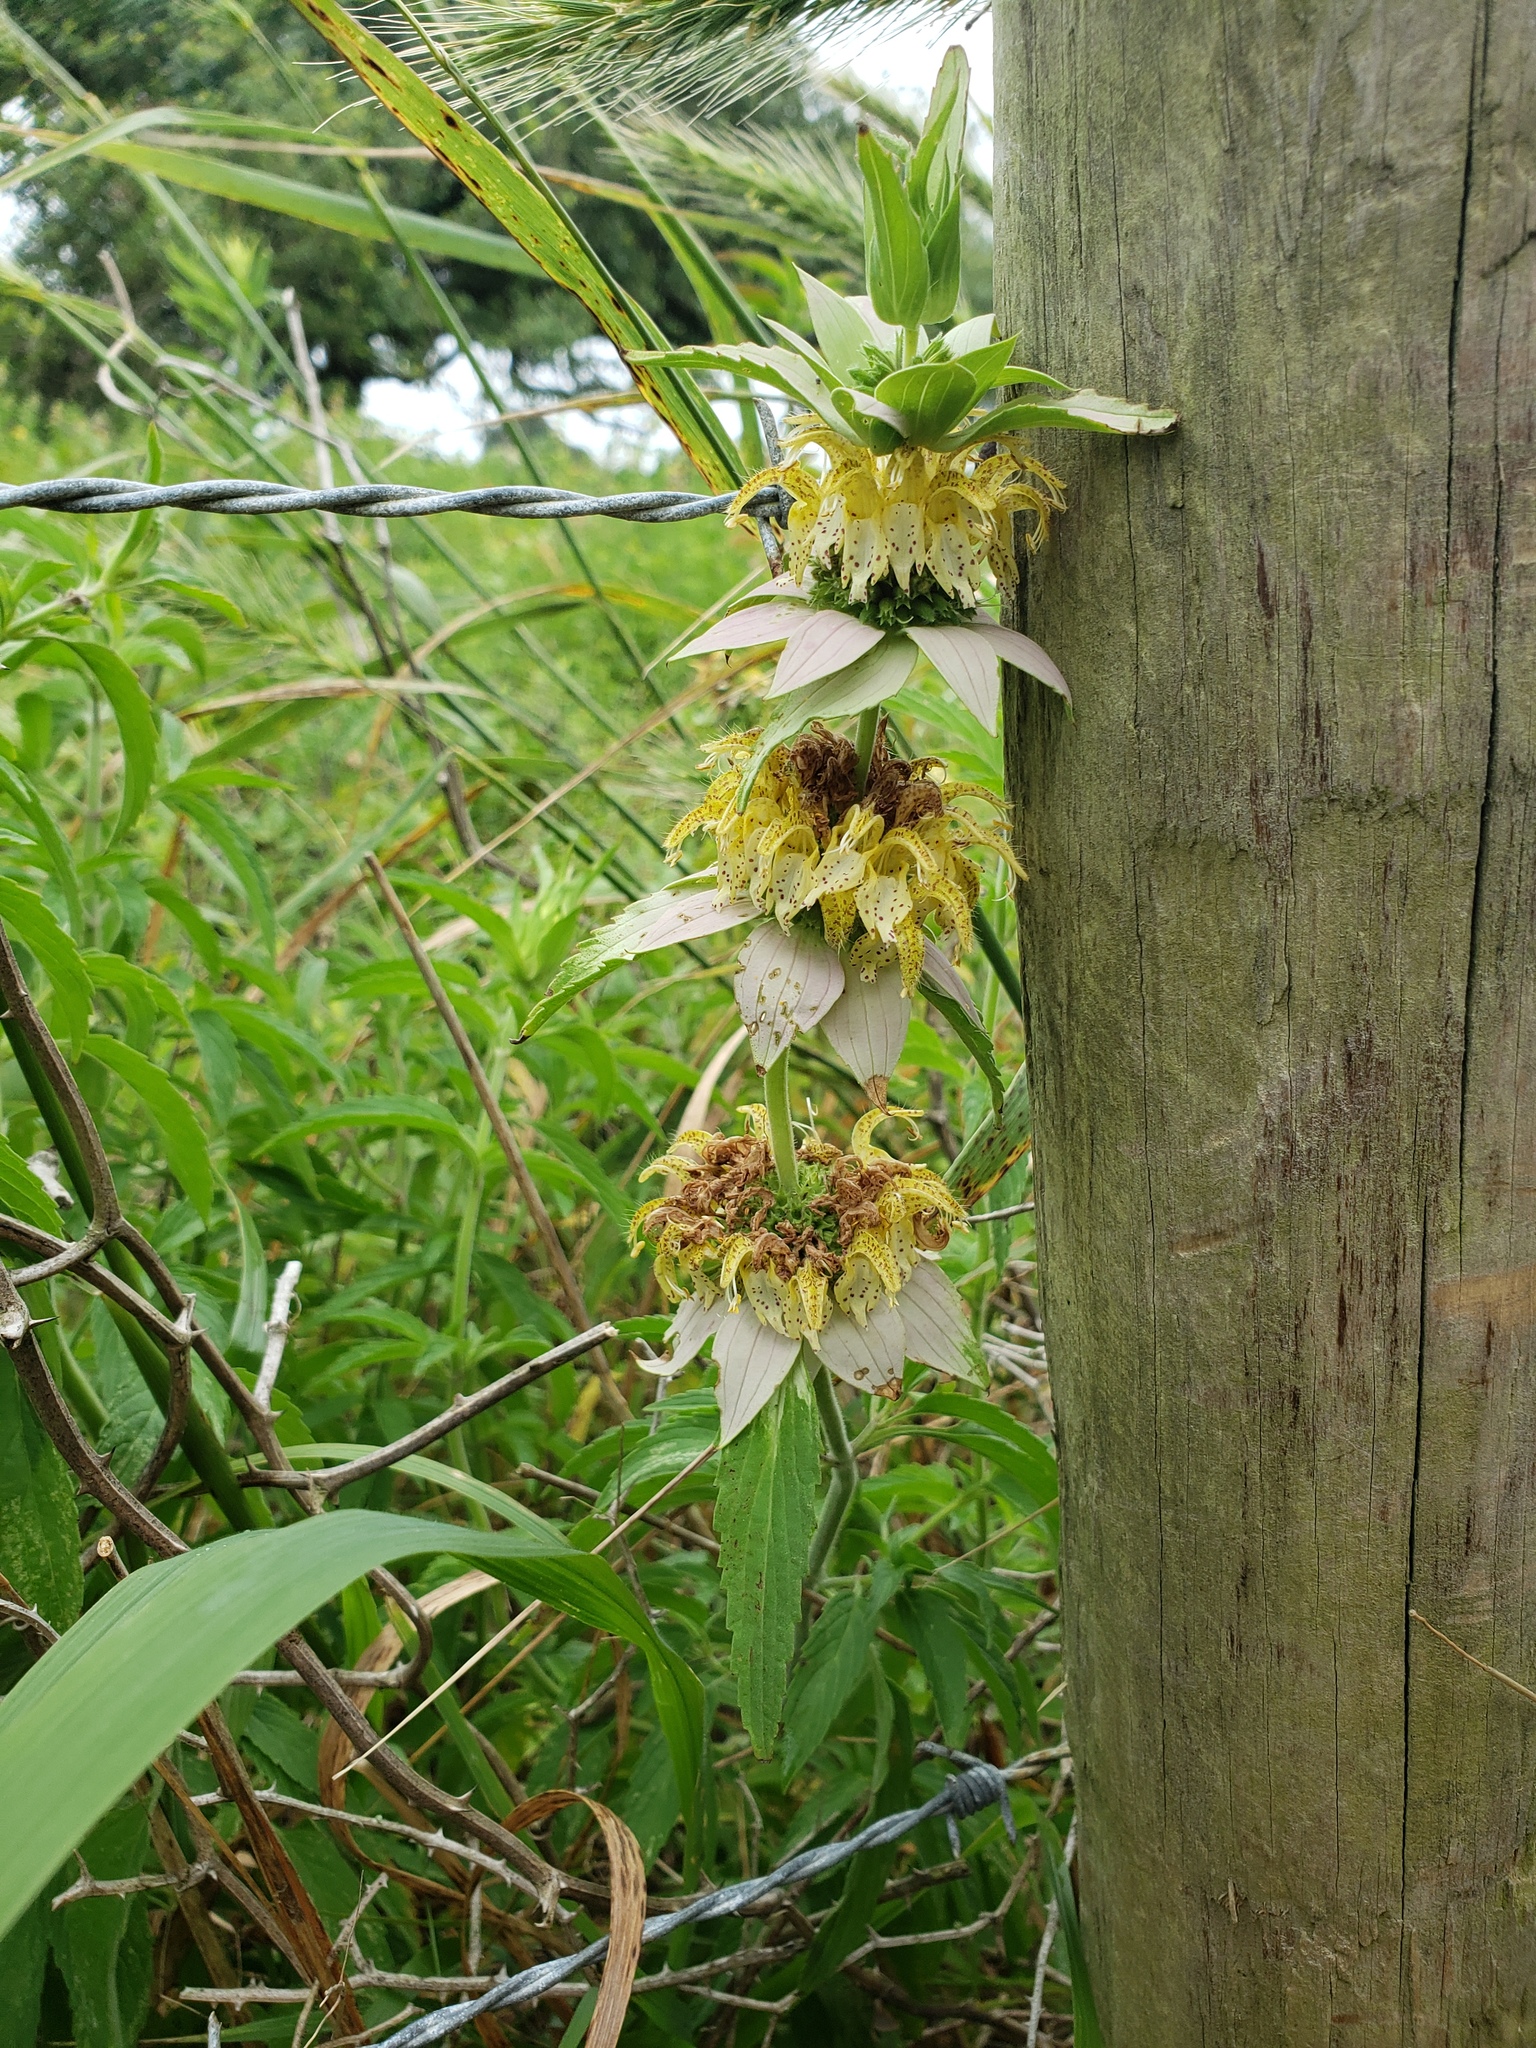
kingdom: Plantae
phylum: Tracheophyta
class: Magnoliopsida
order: Lamiales
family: Lamiaceae
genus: Monarda
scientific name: Monarda punctata
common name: Dotted monarda
